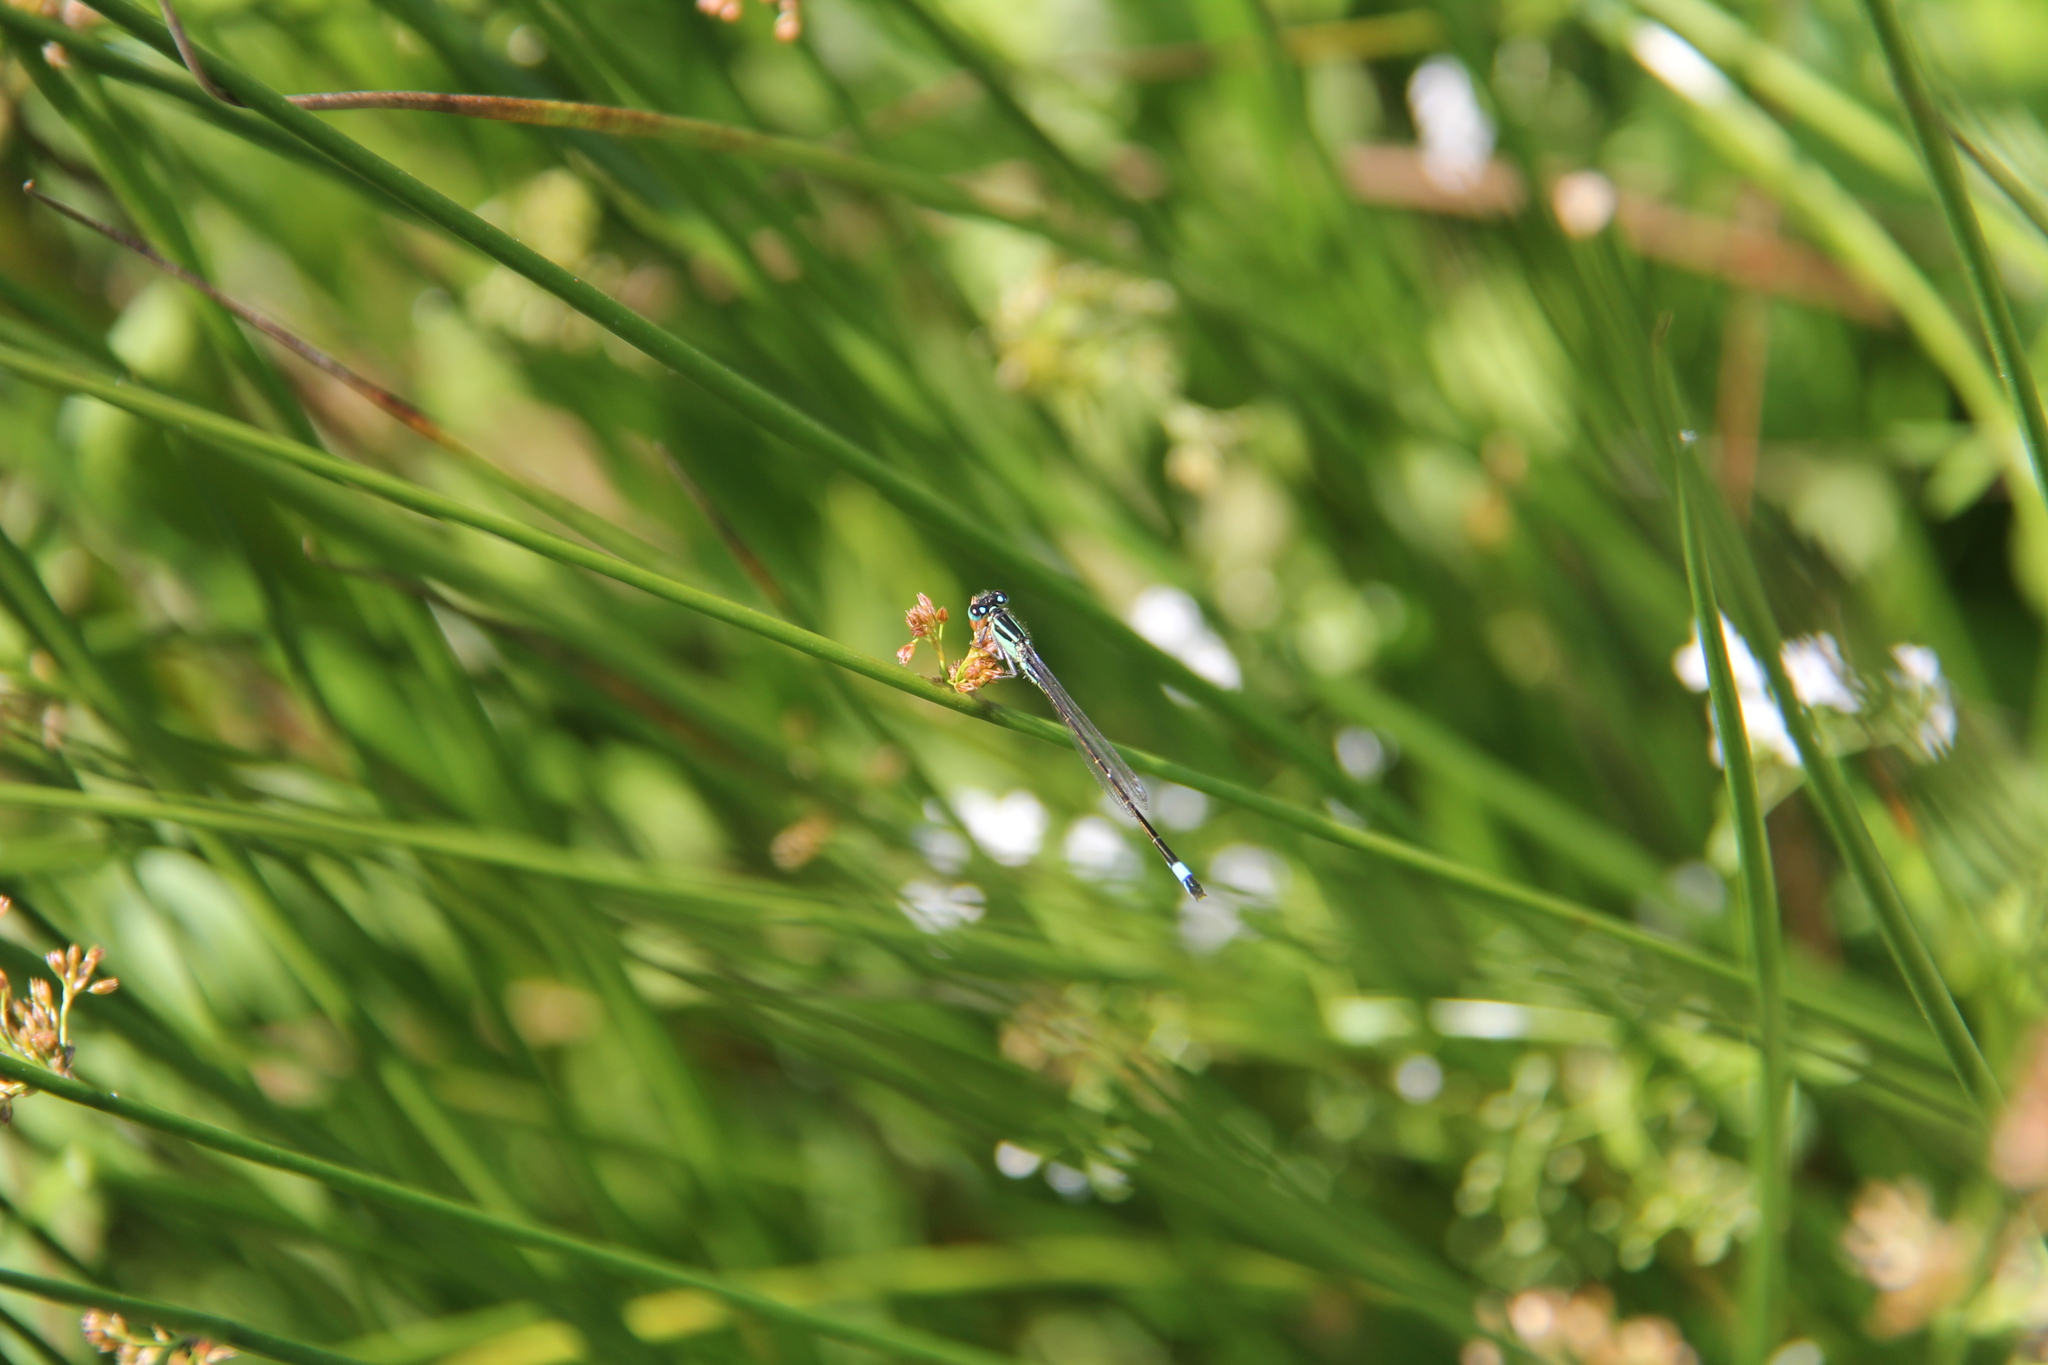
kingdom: Animalia
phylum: Arthropoda
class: Insecta
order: Odonata
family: Coenagrionidae
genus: Ischnura
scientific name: Ischnura elegans
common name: Blue-tailed damselfly
